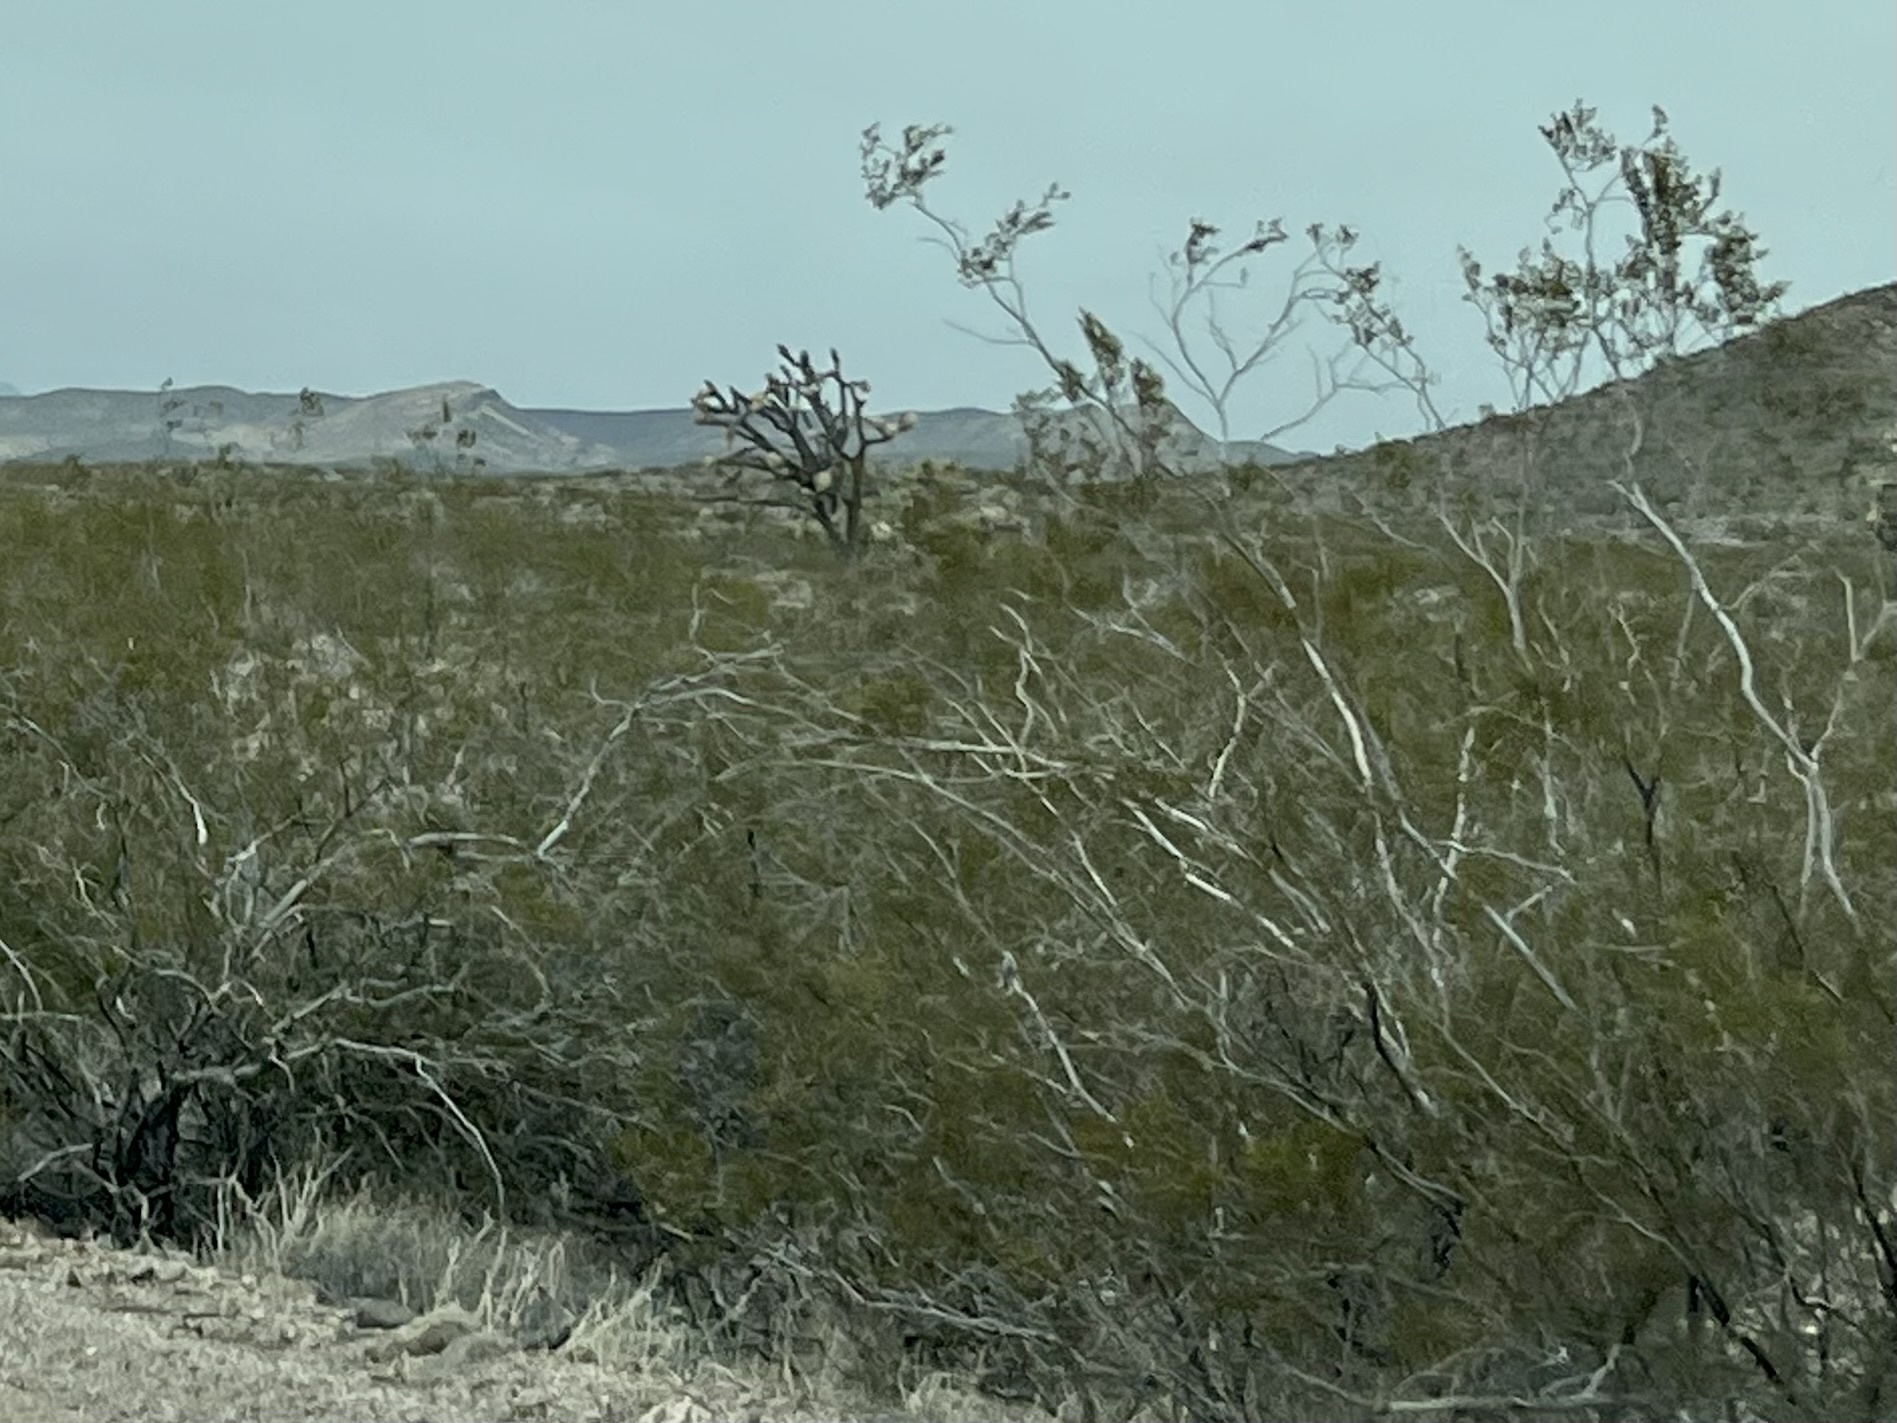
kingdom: Plantae
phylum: Tracheophyta
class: Magnoliopsida
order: Zygophyllales
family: Zygophyllaceae
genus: Larrea
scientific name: Larrea tridentata
